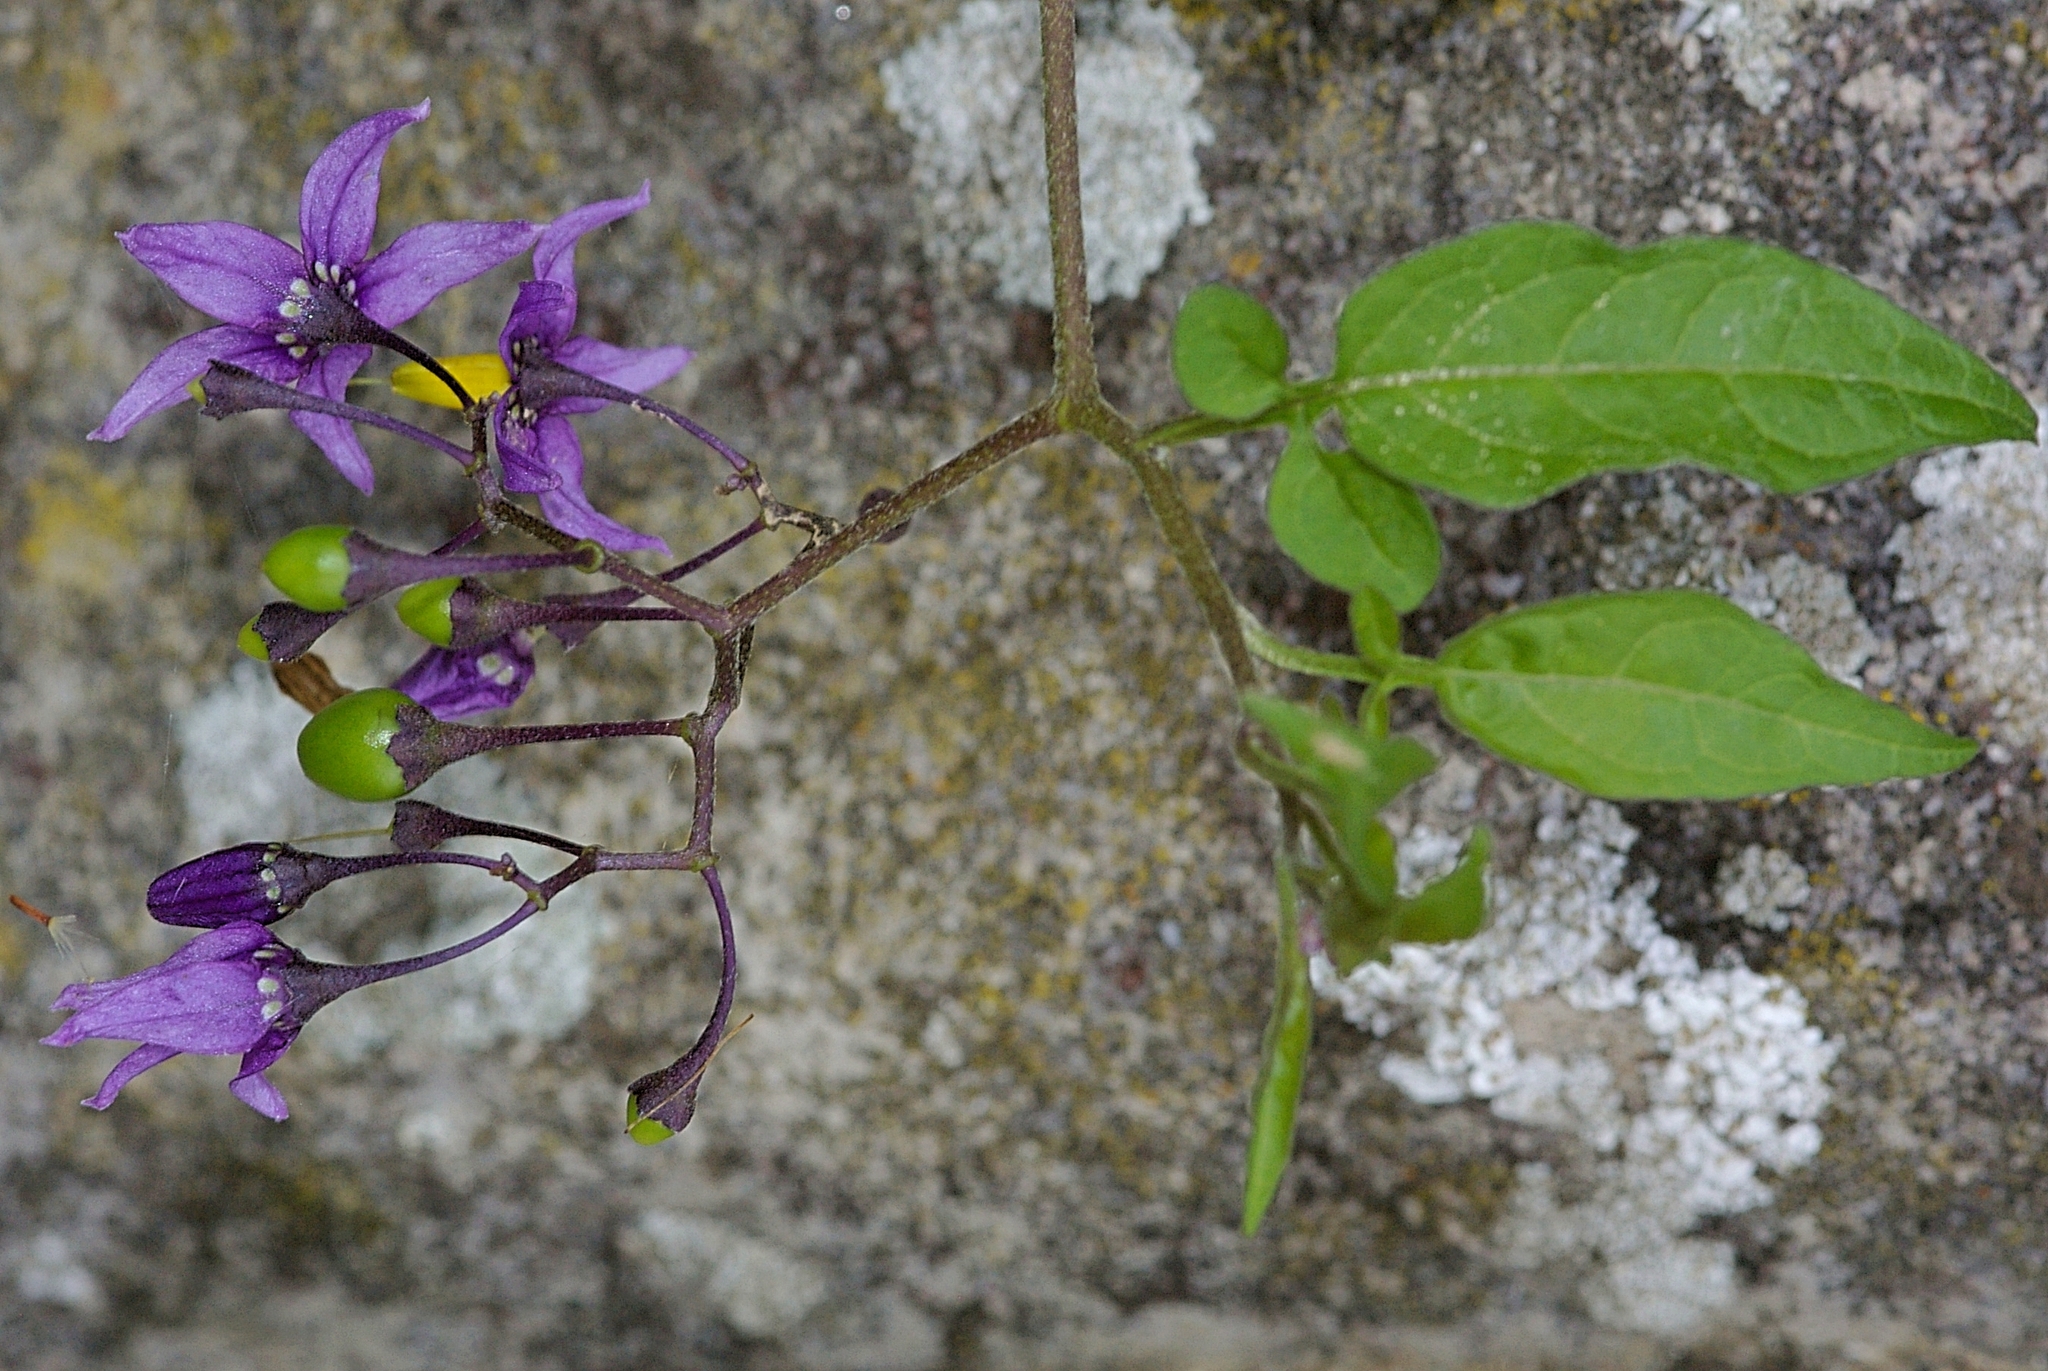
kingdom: Plantae
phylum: Tracheophyta
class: Magnoliopsida
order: Solanales
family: Solanaceae
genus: Solanum
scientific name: Solanum dulcamara
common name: Climbing nightshade
